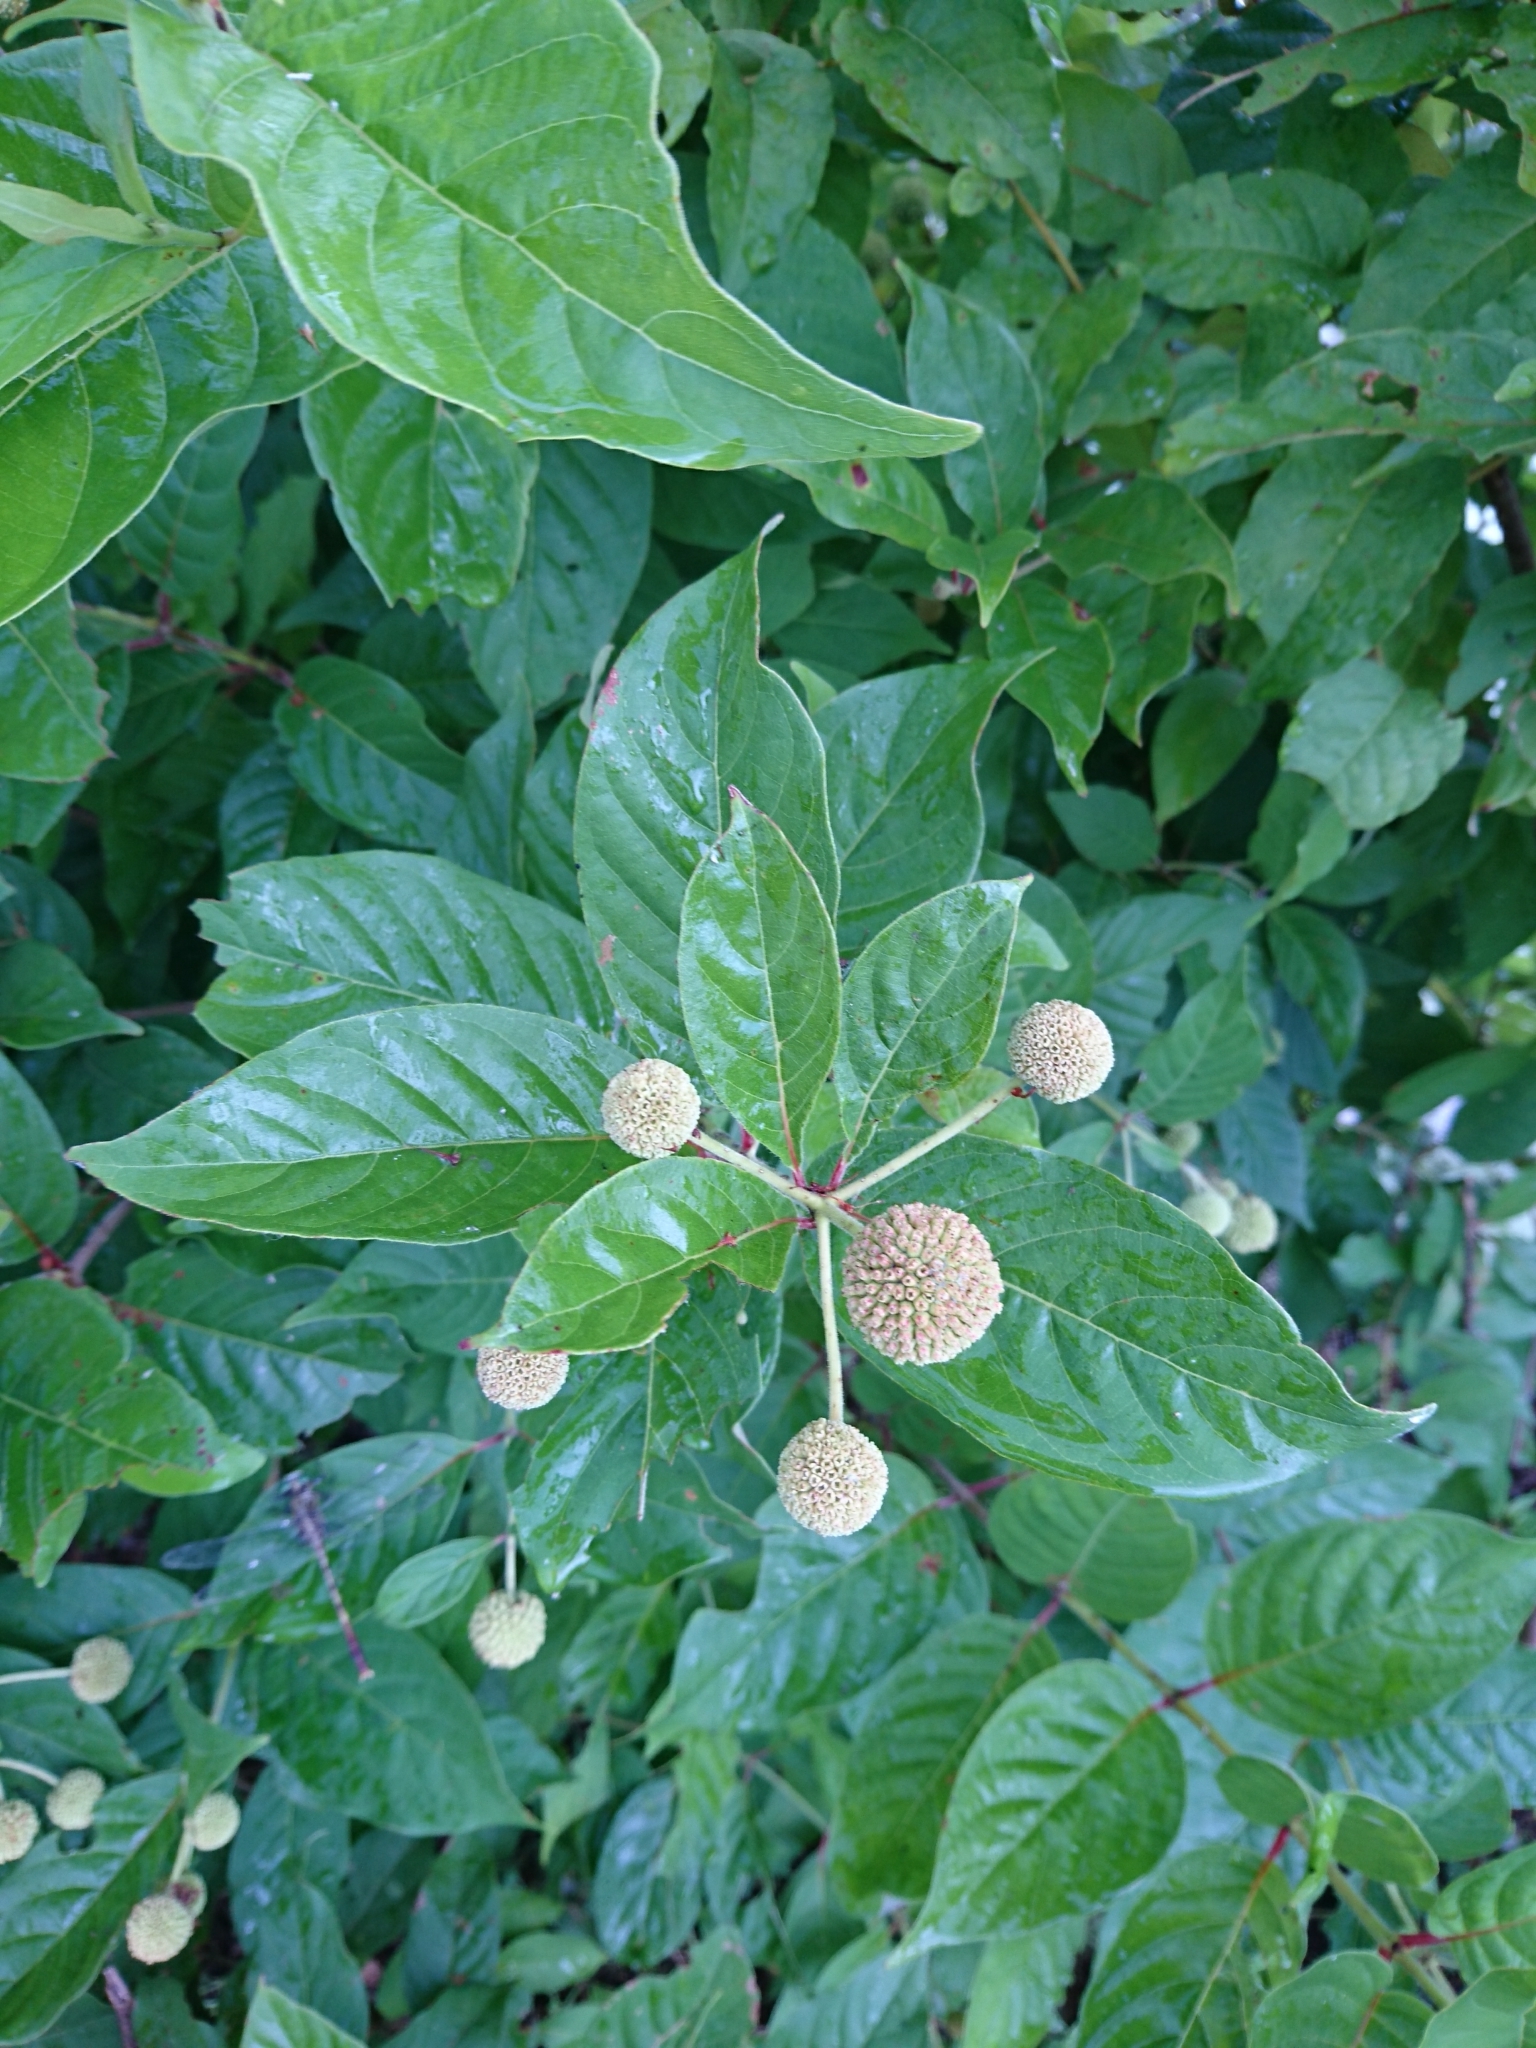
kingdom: Plantae
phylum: Tracheophyta
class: Magnoliopsida
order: Gentianales
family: Rubiaceae
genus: Cephalanthus
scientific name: Cephalanthus occidentalis
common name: Button-willow
